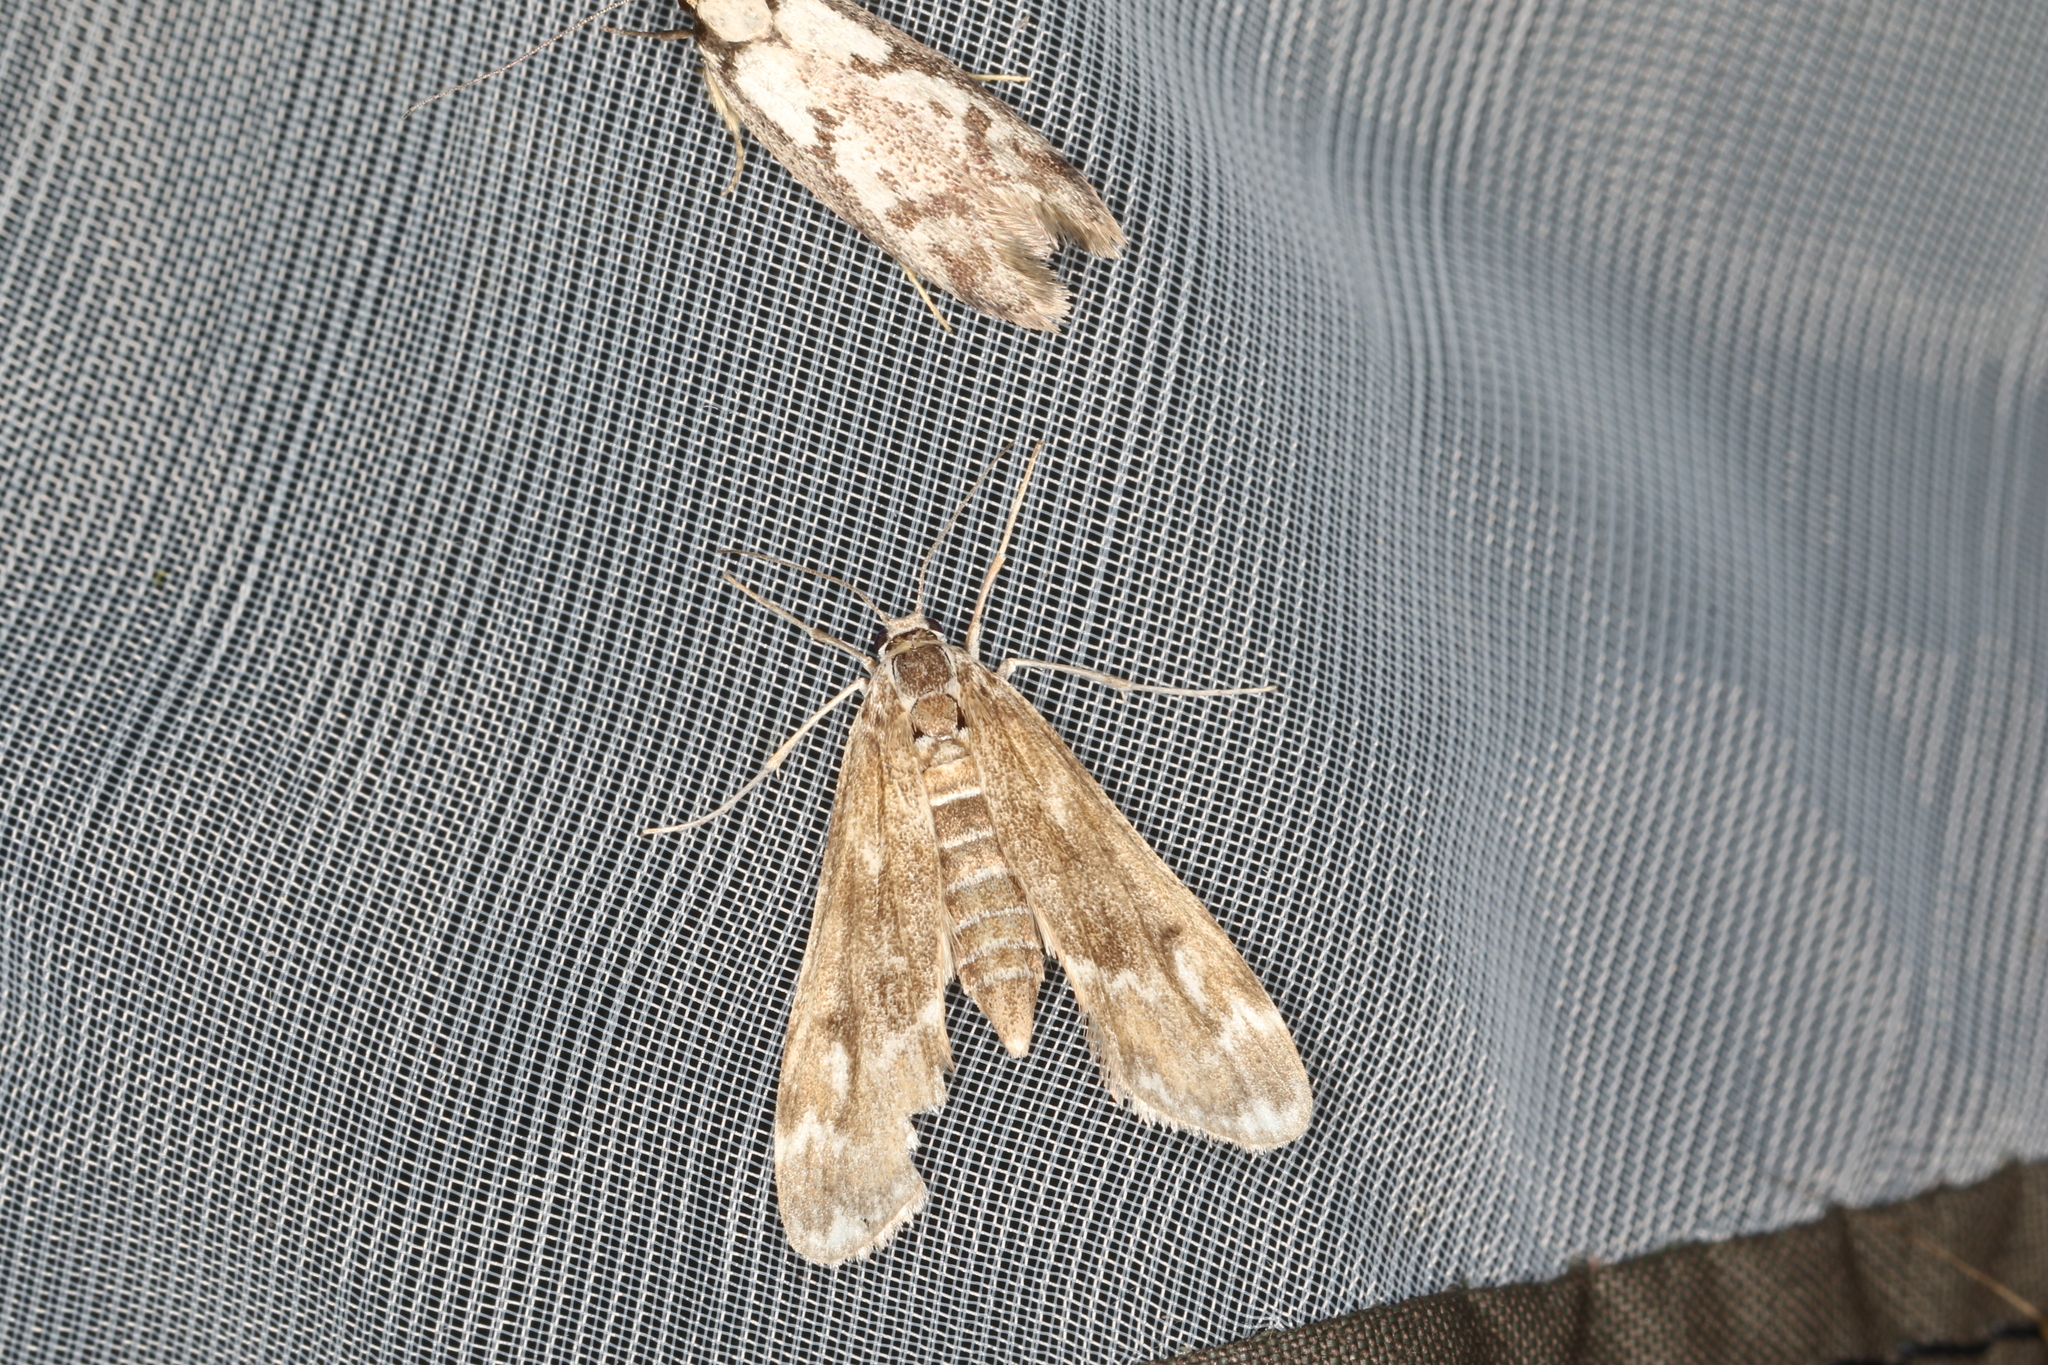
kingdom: Animalia
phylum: Arthropoda
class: Insecta
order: Lepidoptera
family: Crambidae
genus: Hygraula
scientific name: Hygraula nitens
